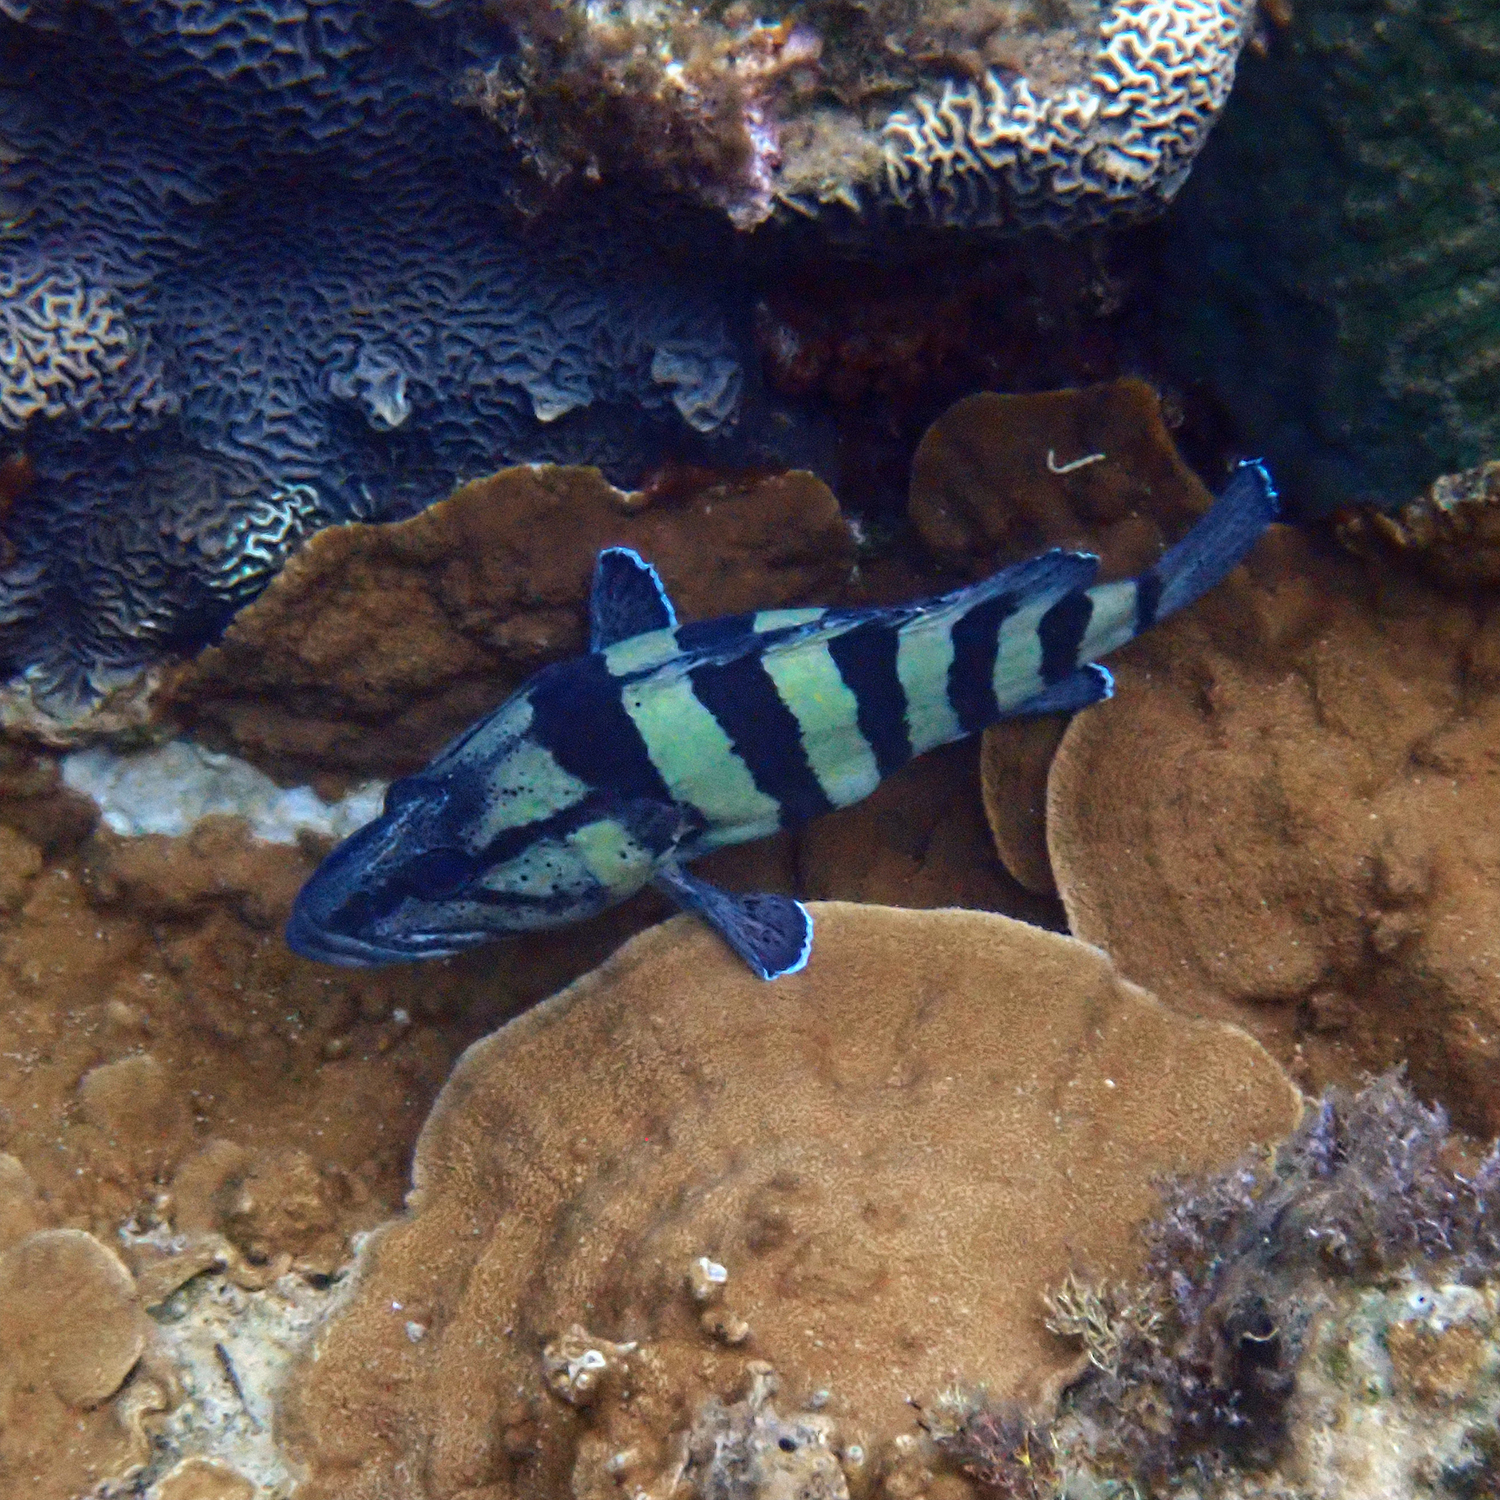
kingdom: Animalia
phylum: Chordata
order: Perciformes
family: Serranidae
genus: Acanthistius
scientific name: Acanthistius cinctus
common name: Girdled rock cod
